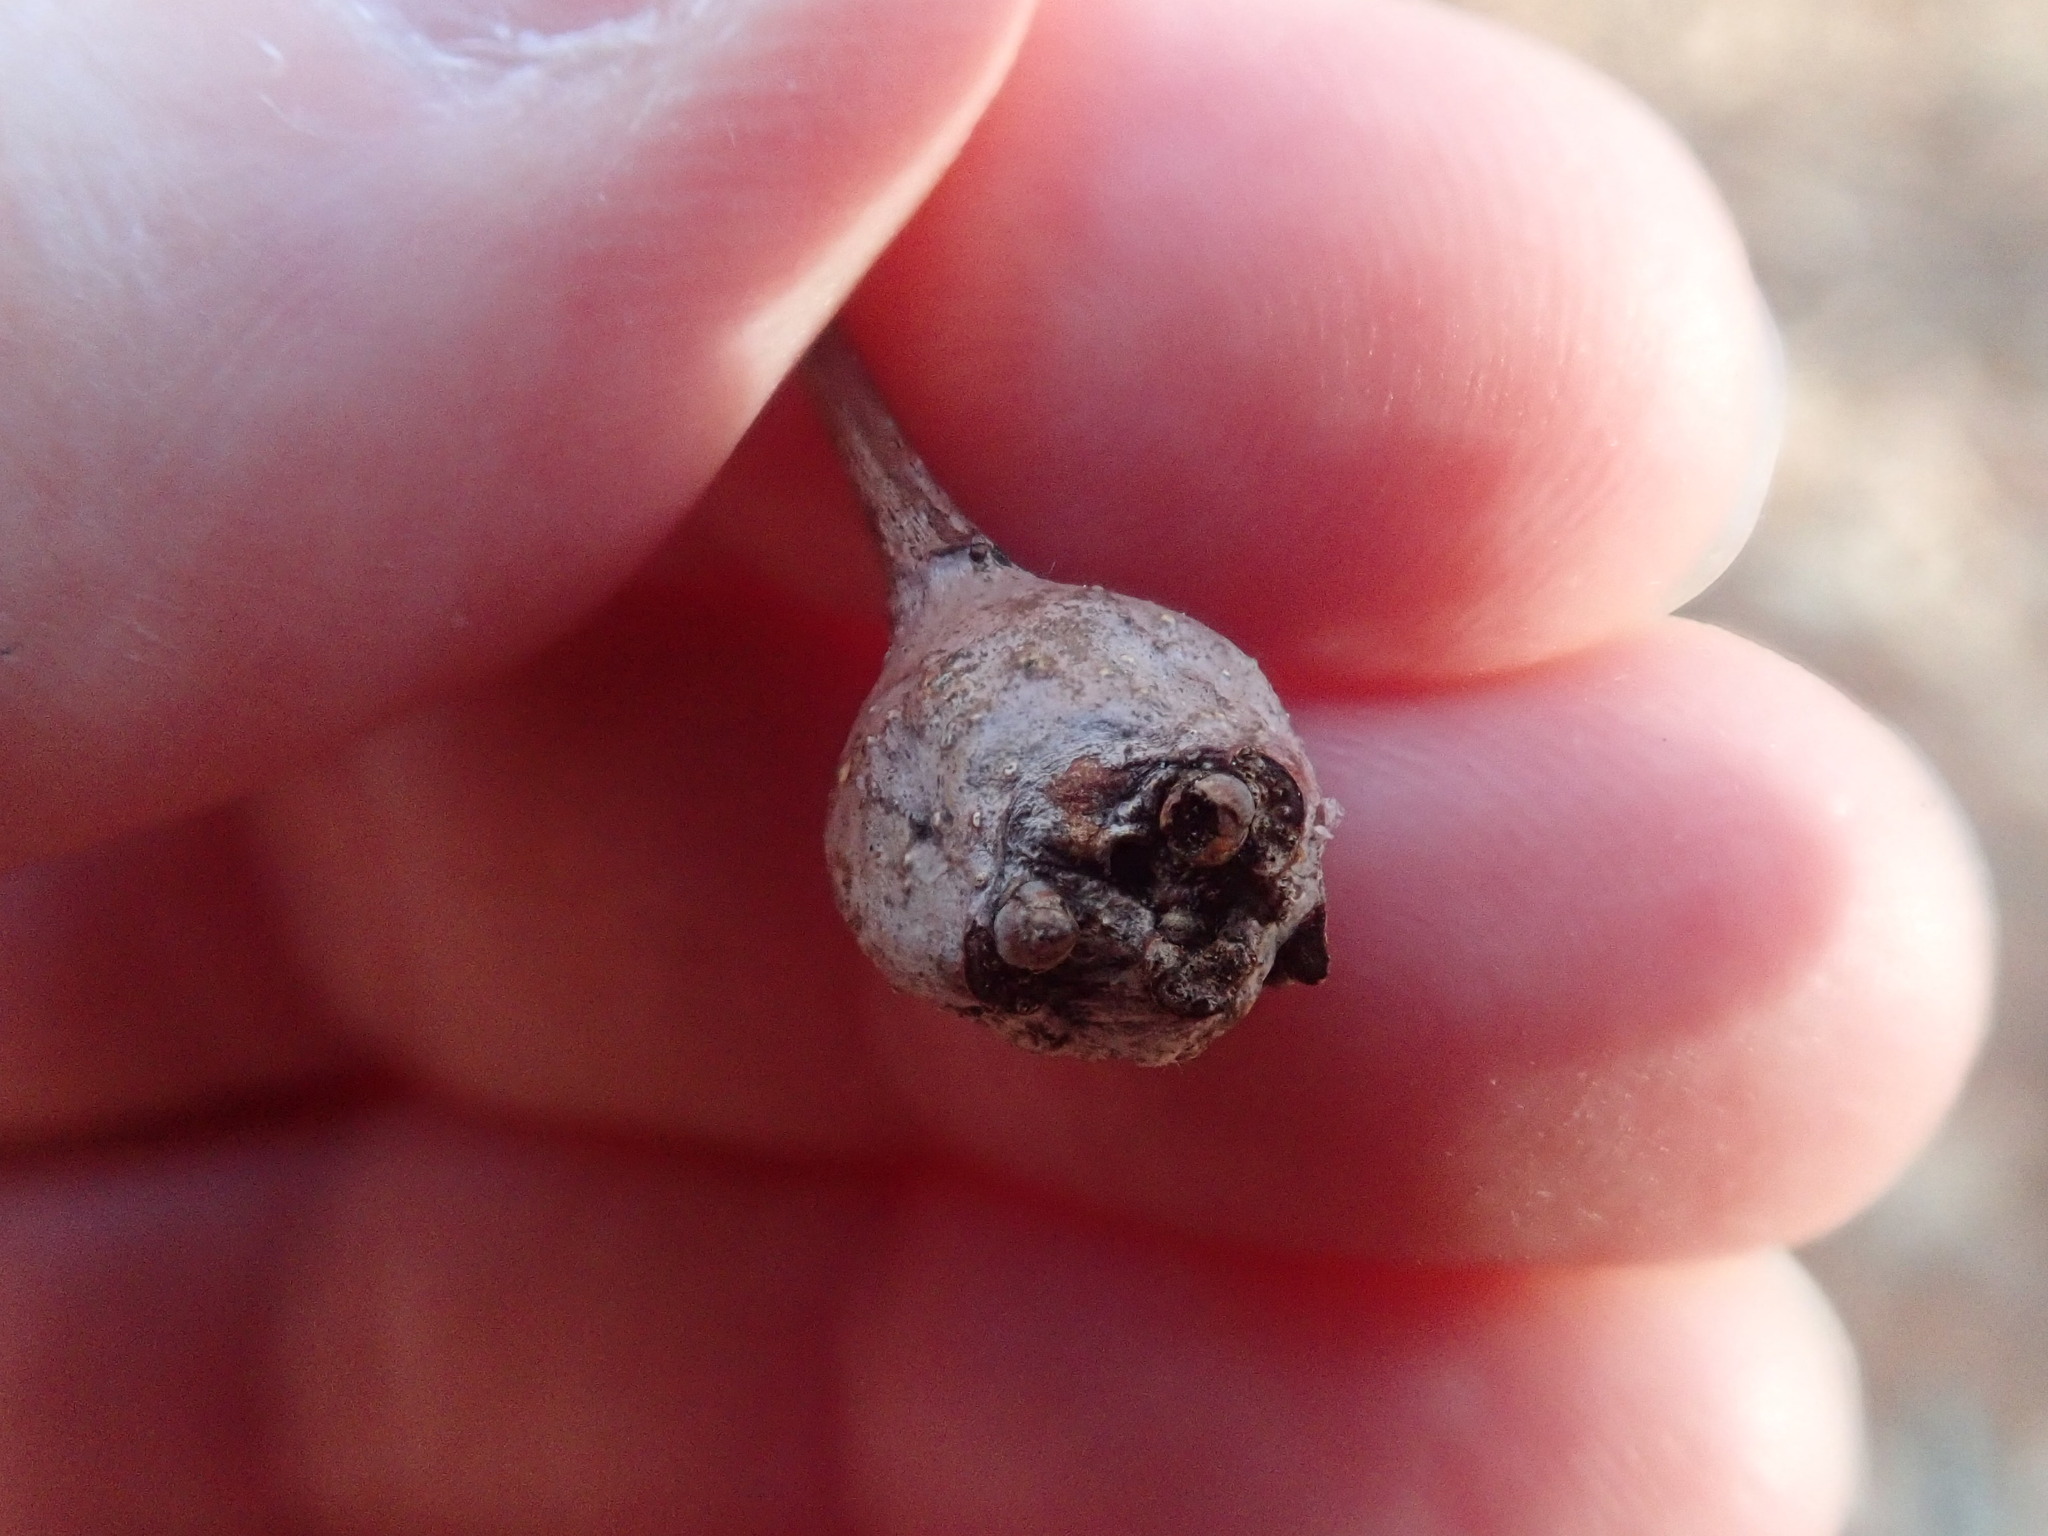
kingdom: Animalia
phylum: Arthropoda
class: Insecta
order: Hymenoptera
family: Cynipidae
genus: Callirhytis
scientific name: Callirhytis clavula
